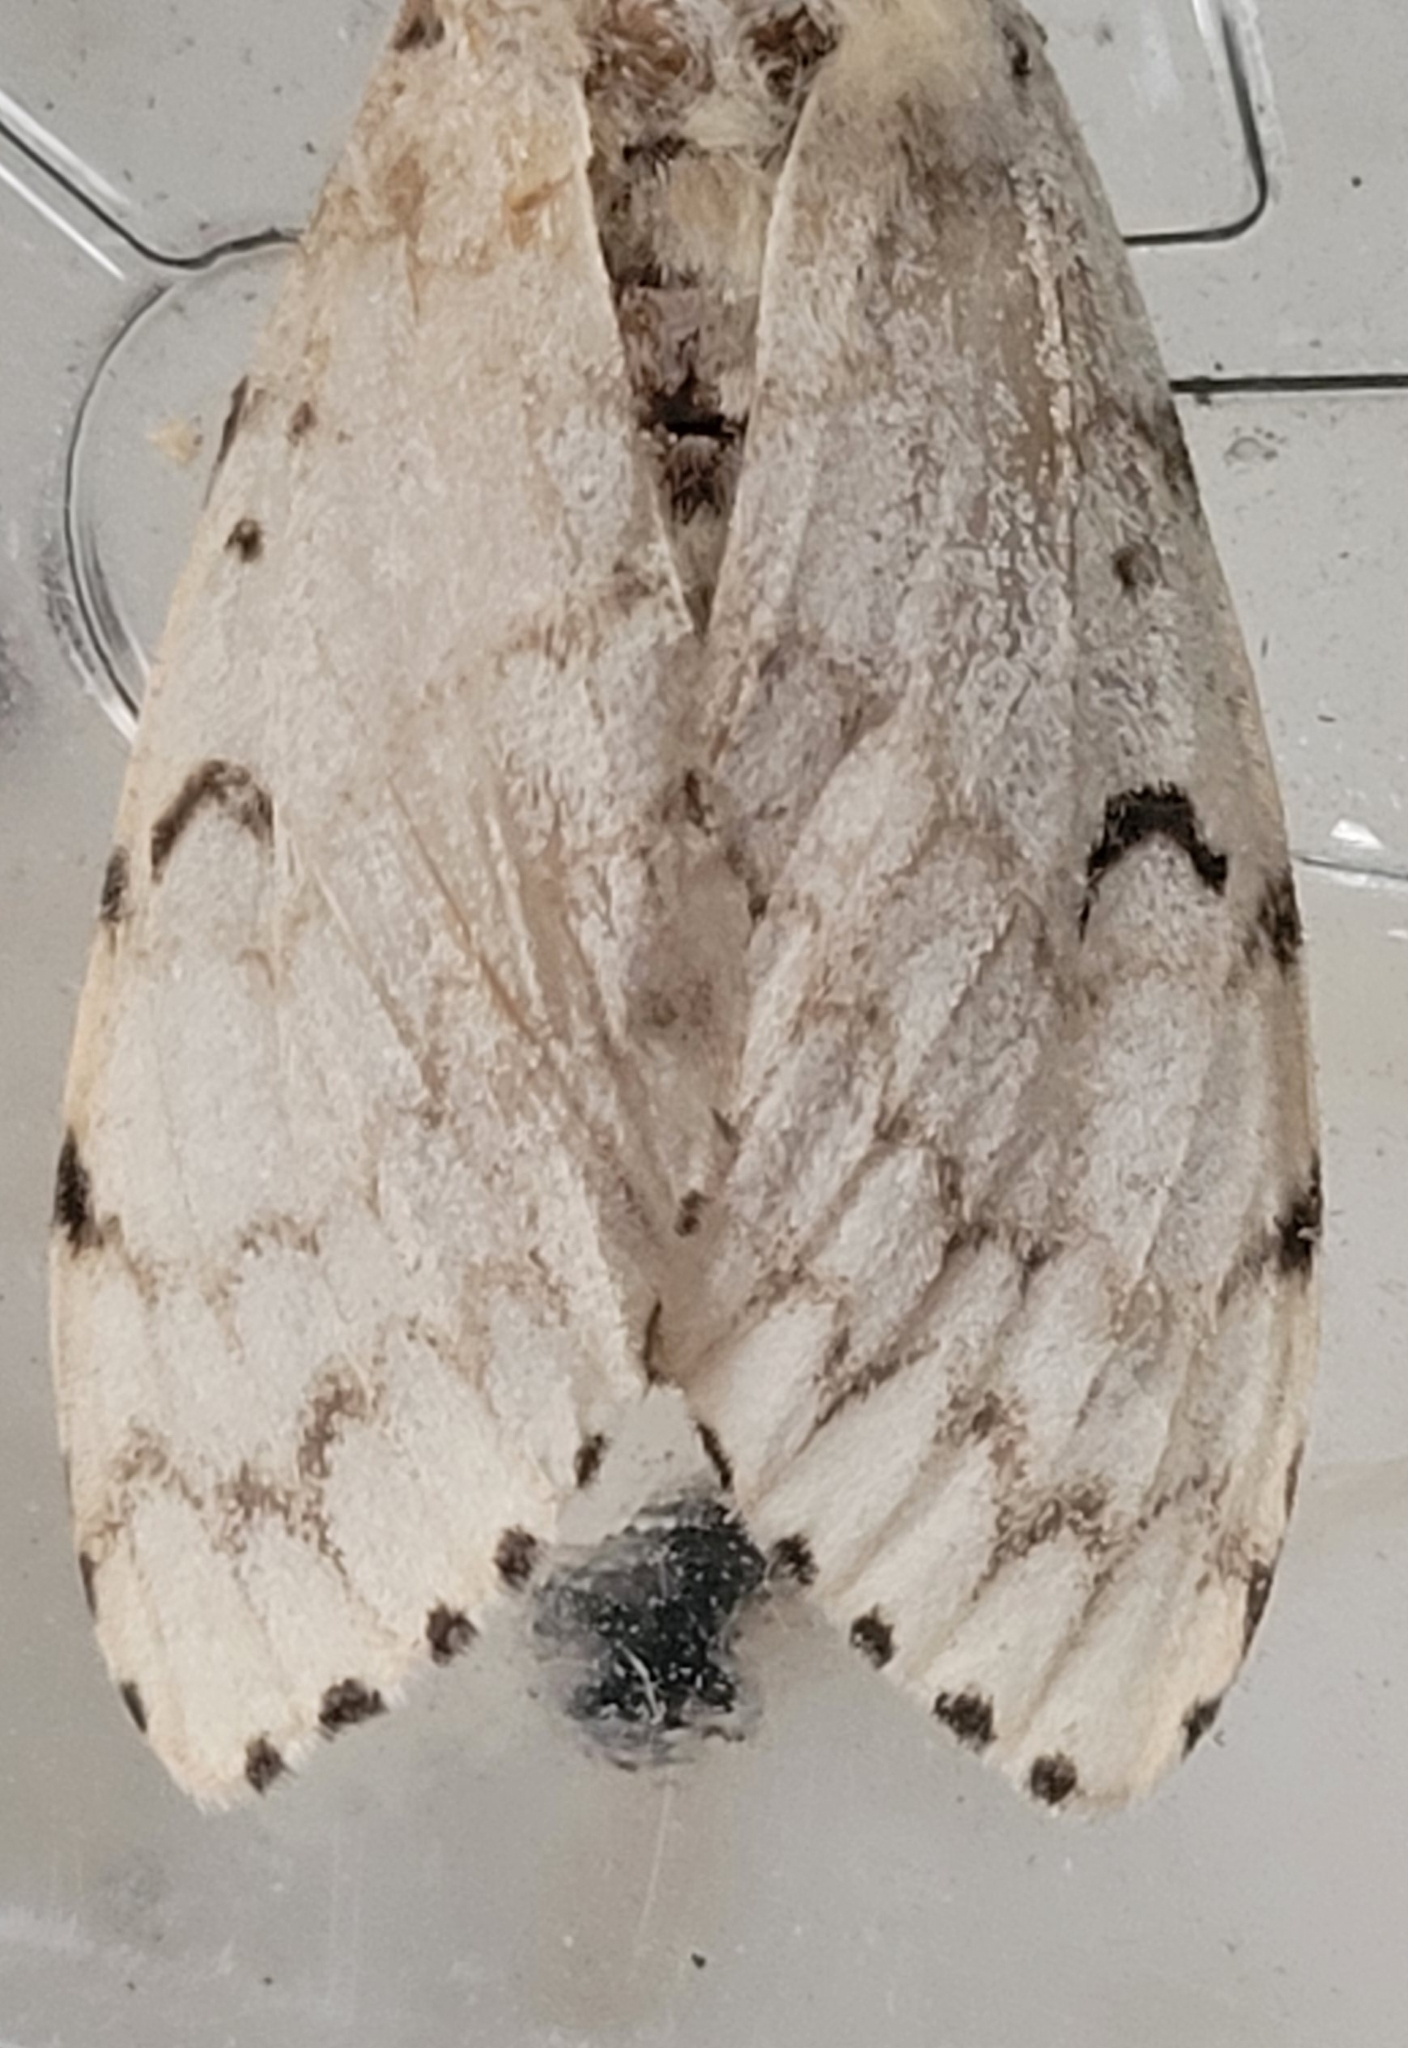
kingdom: Animalia
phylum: Arthropoda
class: Insecta
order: Lepidoptera
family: Erebidae
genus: Lymantria
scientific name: Lymantria dispar
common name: Gypsy moth
